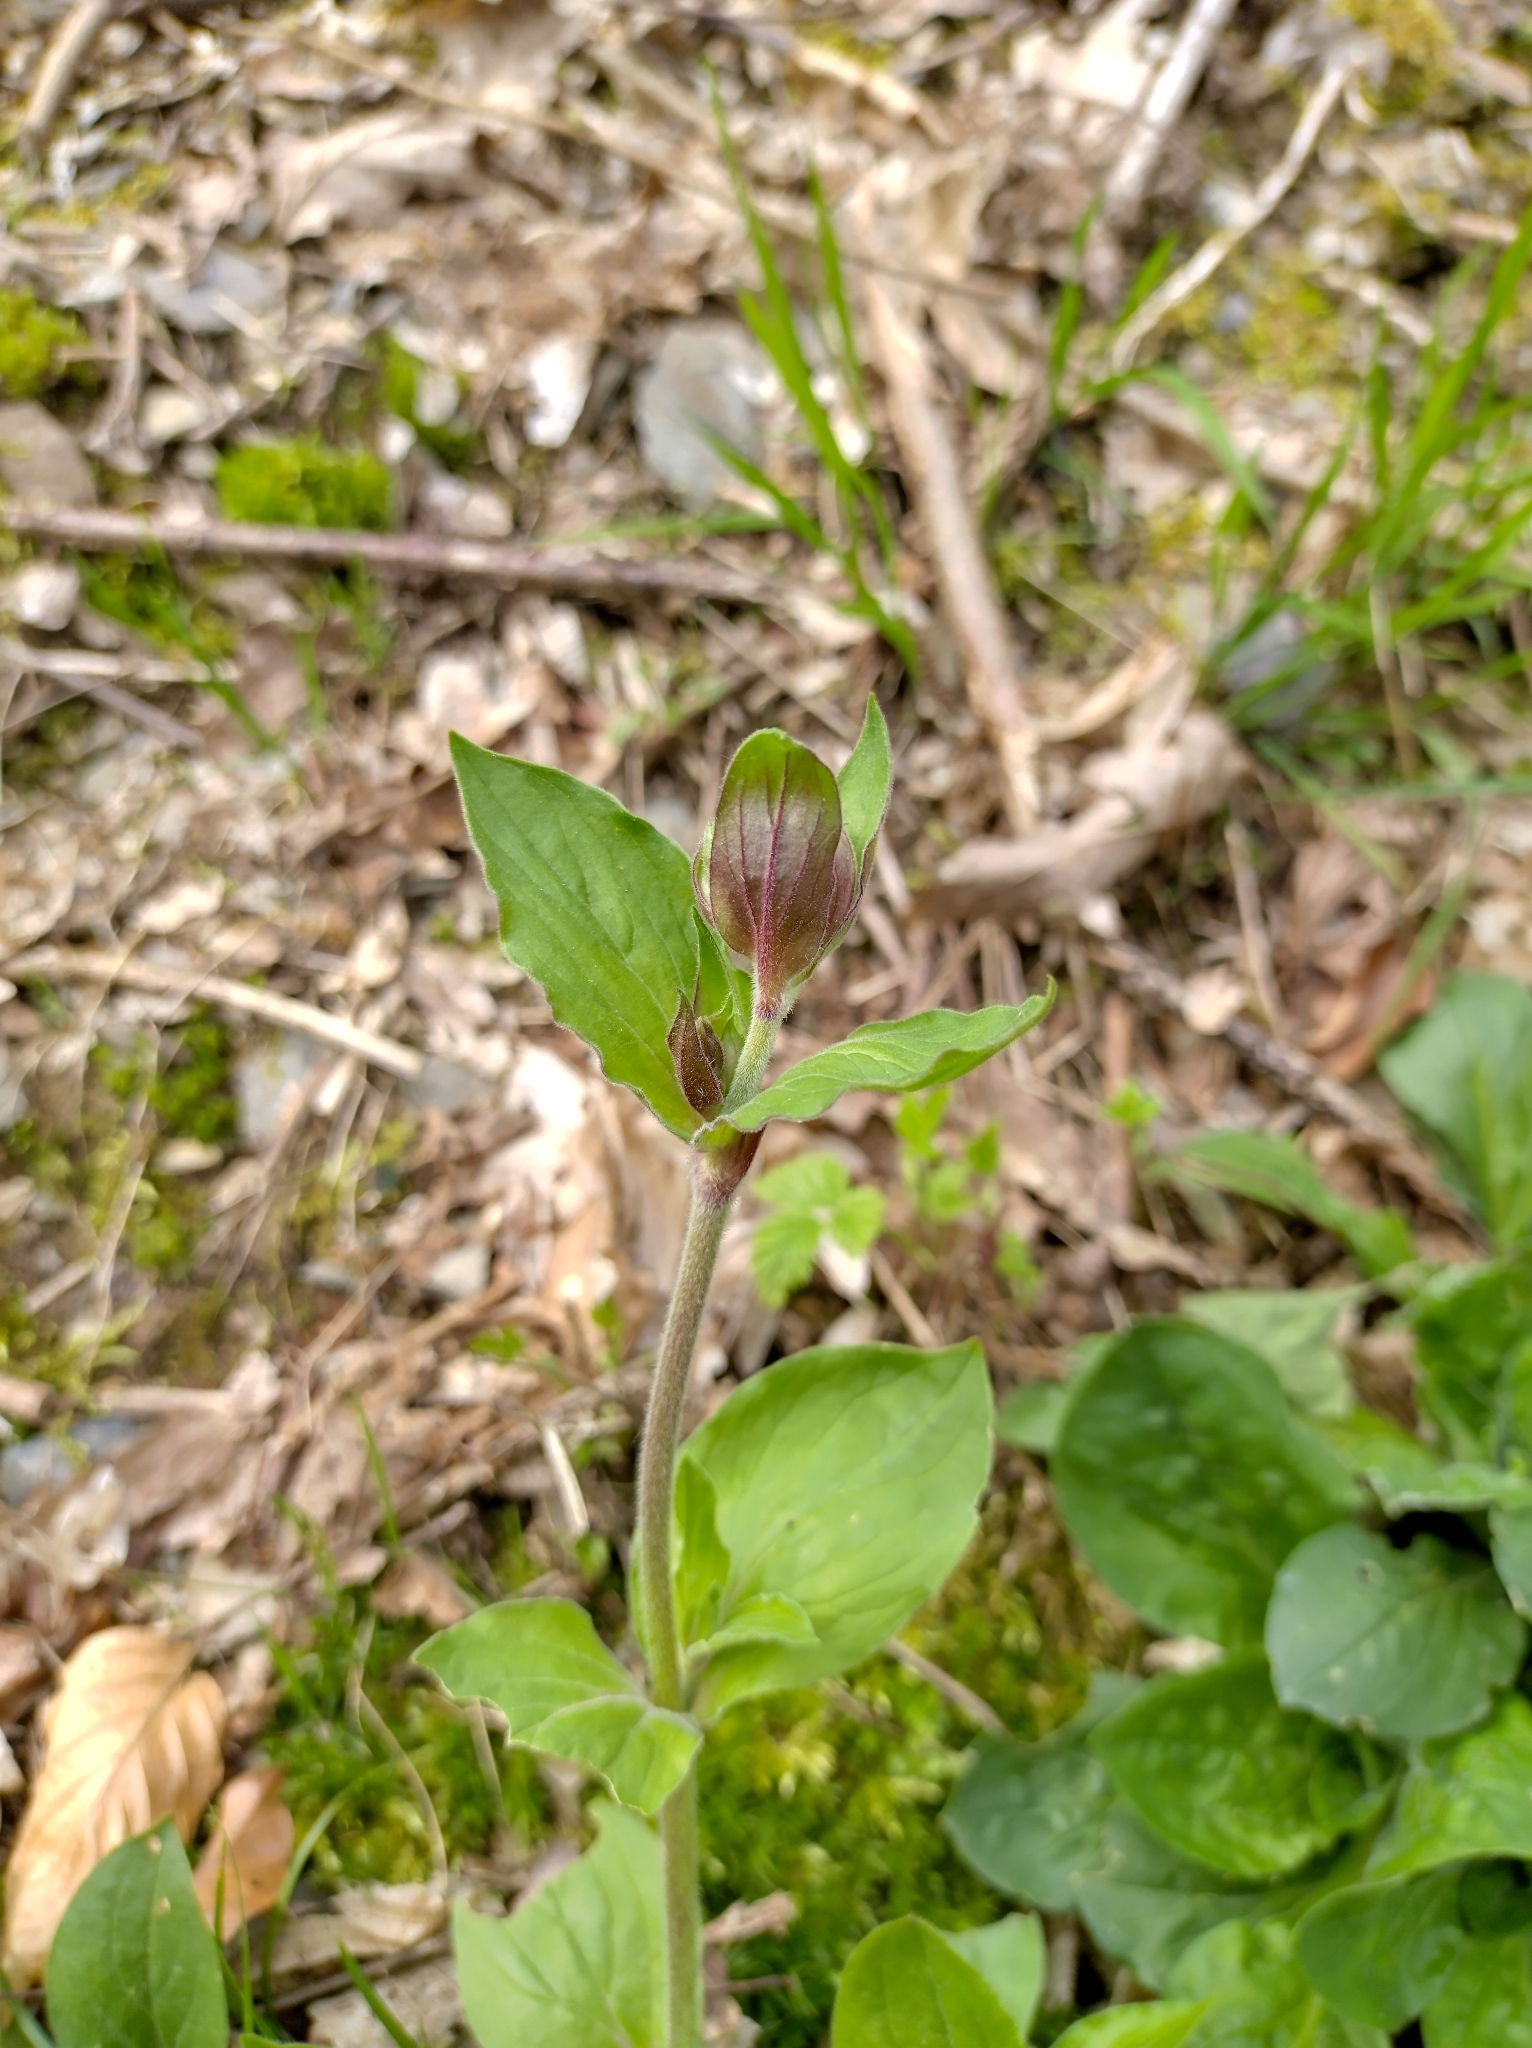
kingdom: Plantae
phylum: Tracheophyta
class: Magnoliopsida
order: Caryophyllales
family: Caryophyllaceae
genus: Silene
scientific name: Silene dioica
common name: Red campion
